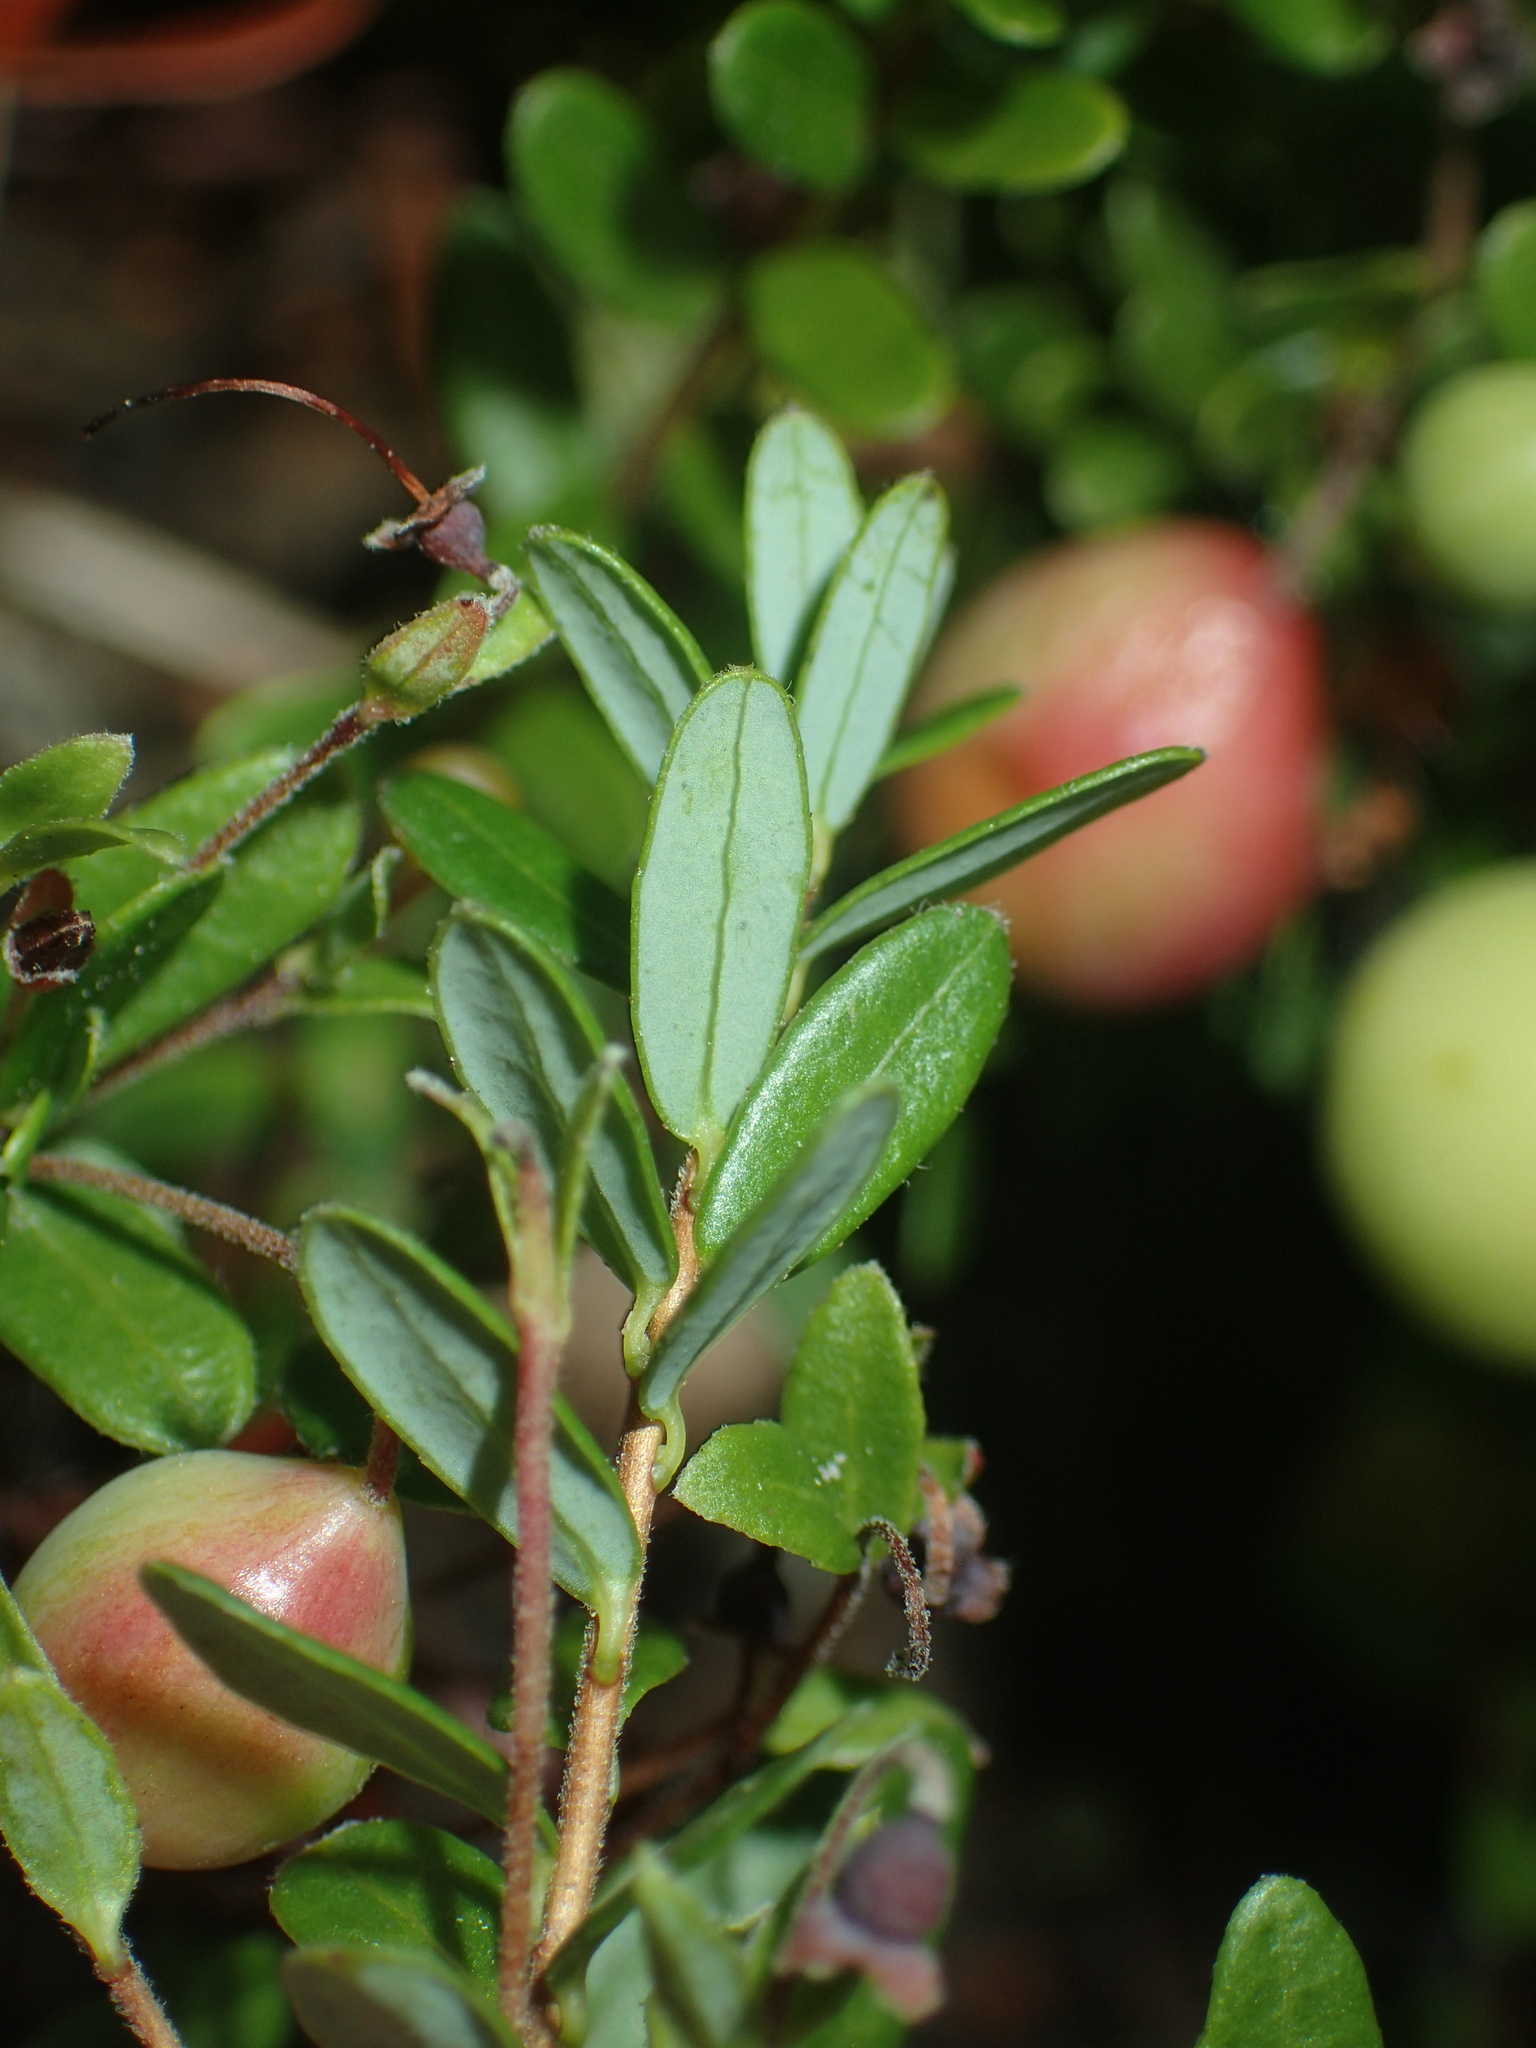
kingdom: Plantae
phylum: Tracheophyta
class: Magnoliopsida
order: Ericales
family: Ericaceae
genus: Vaccinium
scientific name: Vaccinium macrocarpon
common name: American cranberry
